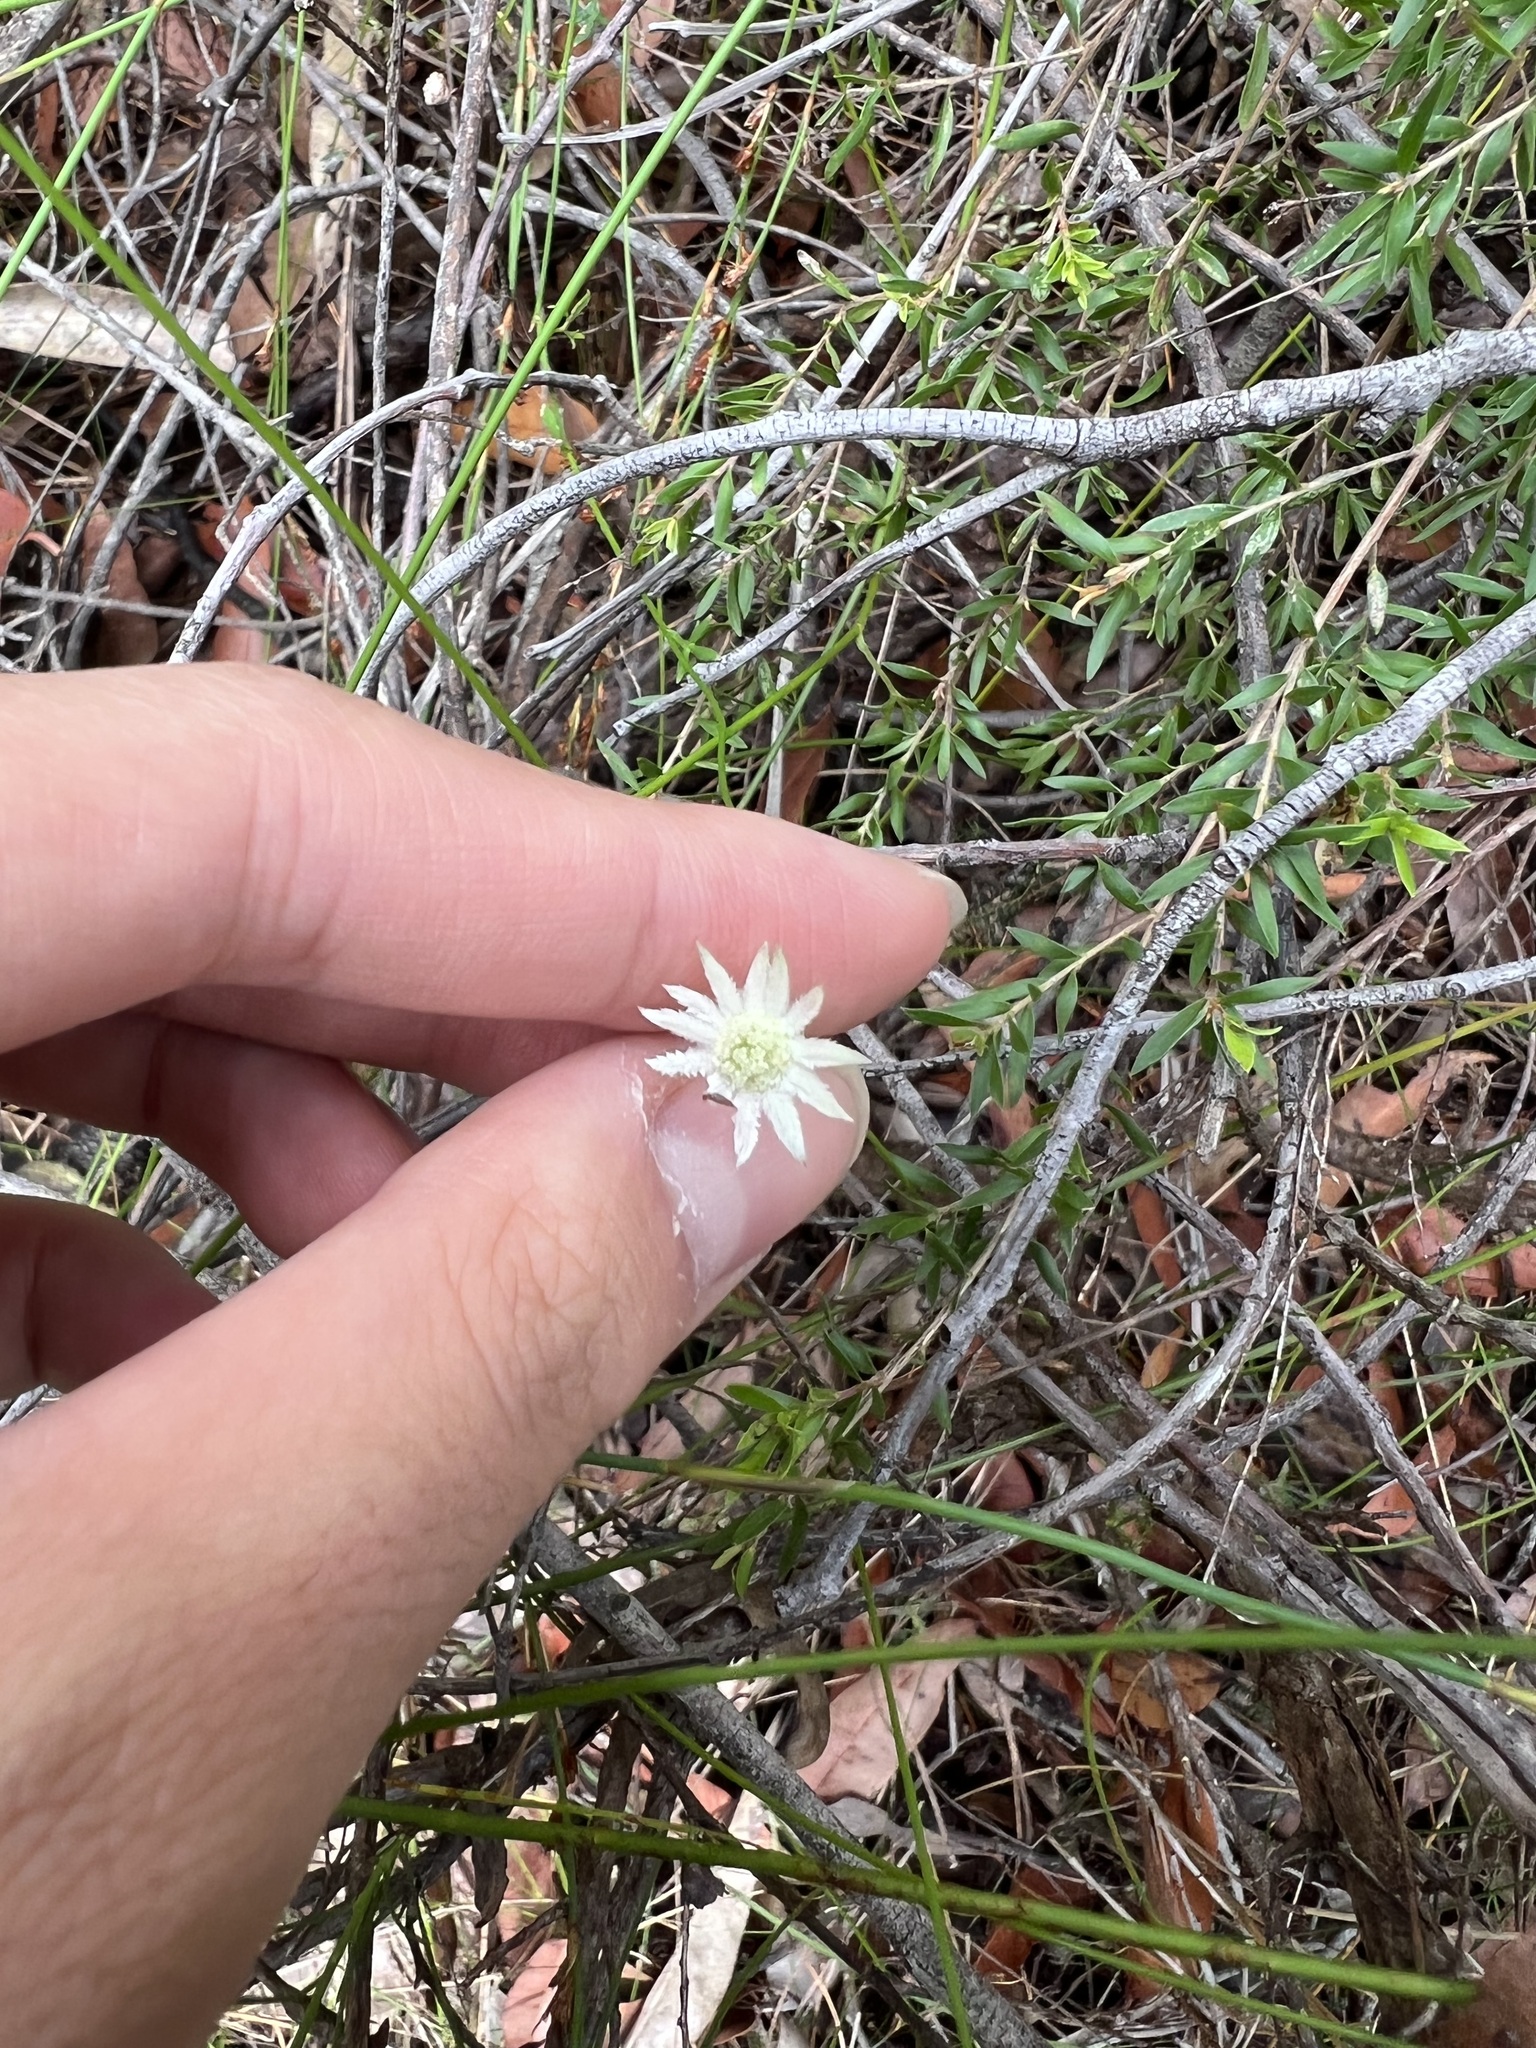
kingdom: Plantae
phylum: Tracheophyta
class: Magnoliopsida
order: Apiales
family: Apiaceae
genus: Actinotus
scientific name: Actinotus minor
